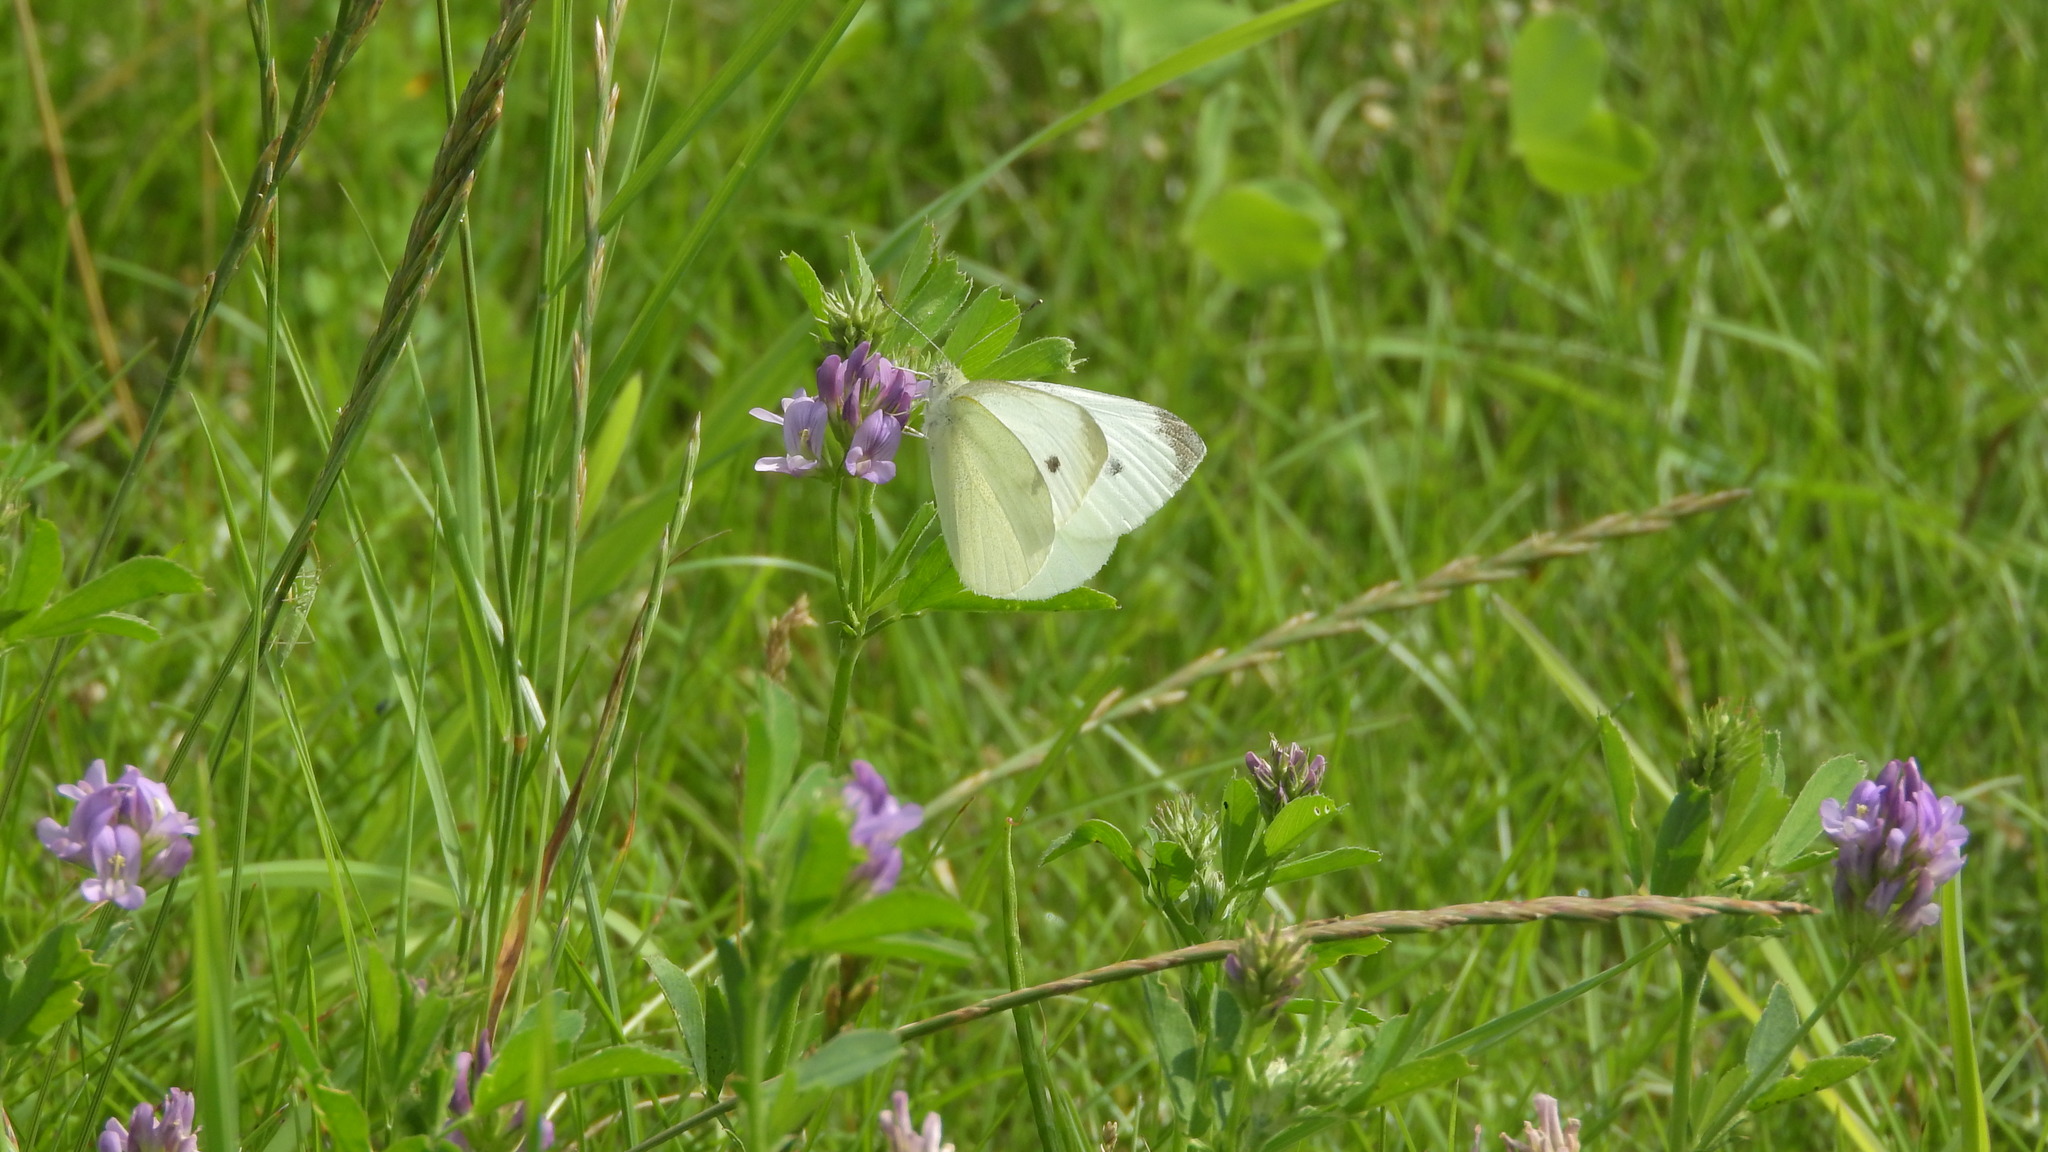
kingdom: Animalia
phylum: Arthropoda
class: Insecta
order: Lepidoptera
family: Pieridae
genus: Pieris
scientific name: Pieris rapae
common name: Small white
